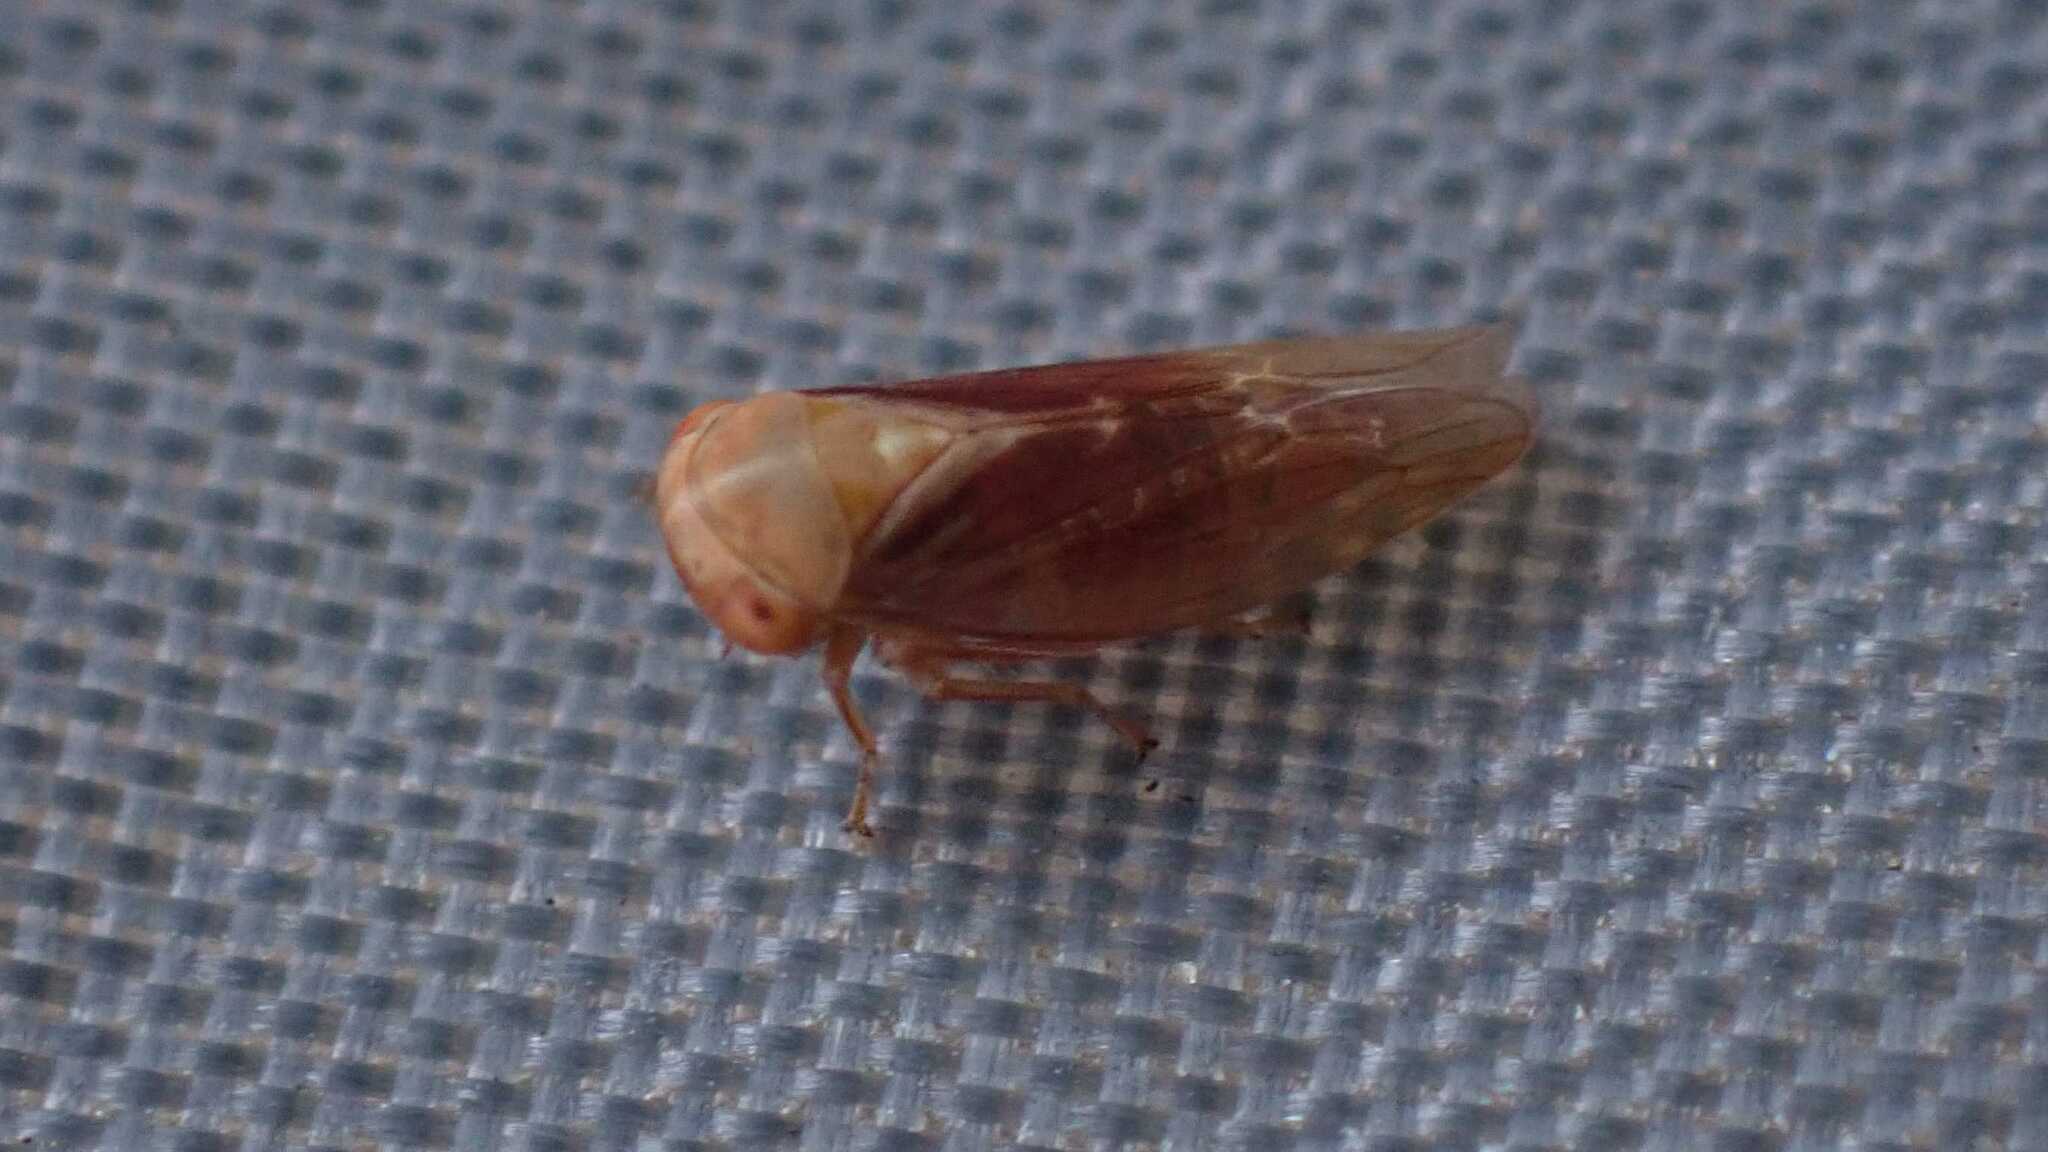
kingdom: Animalia
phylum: Arthropoda
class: Insecta
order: Hemiptera
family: Cicadellidae
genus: Tremulicerus
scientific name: Tremulicerus fulgidus
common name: Leafhopper
